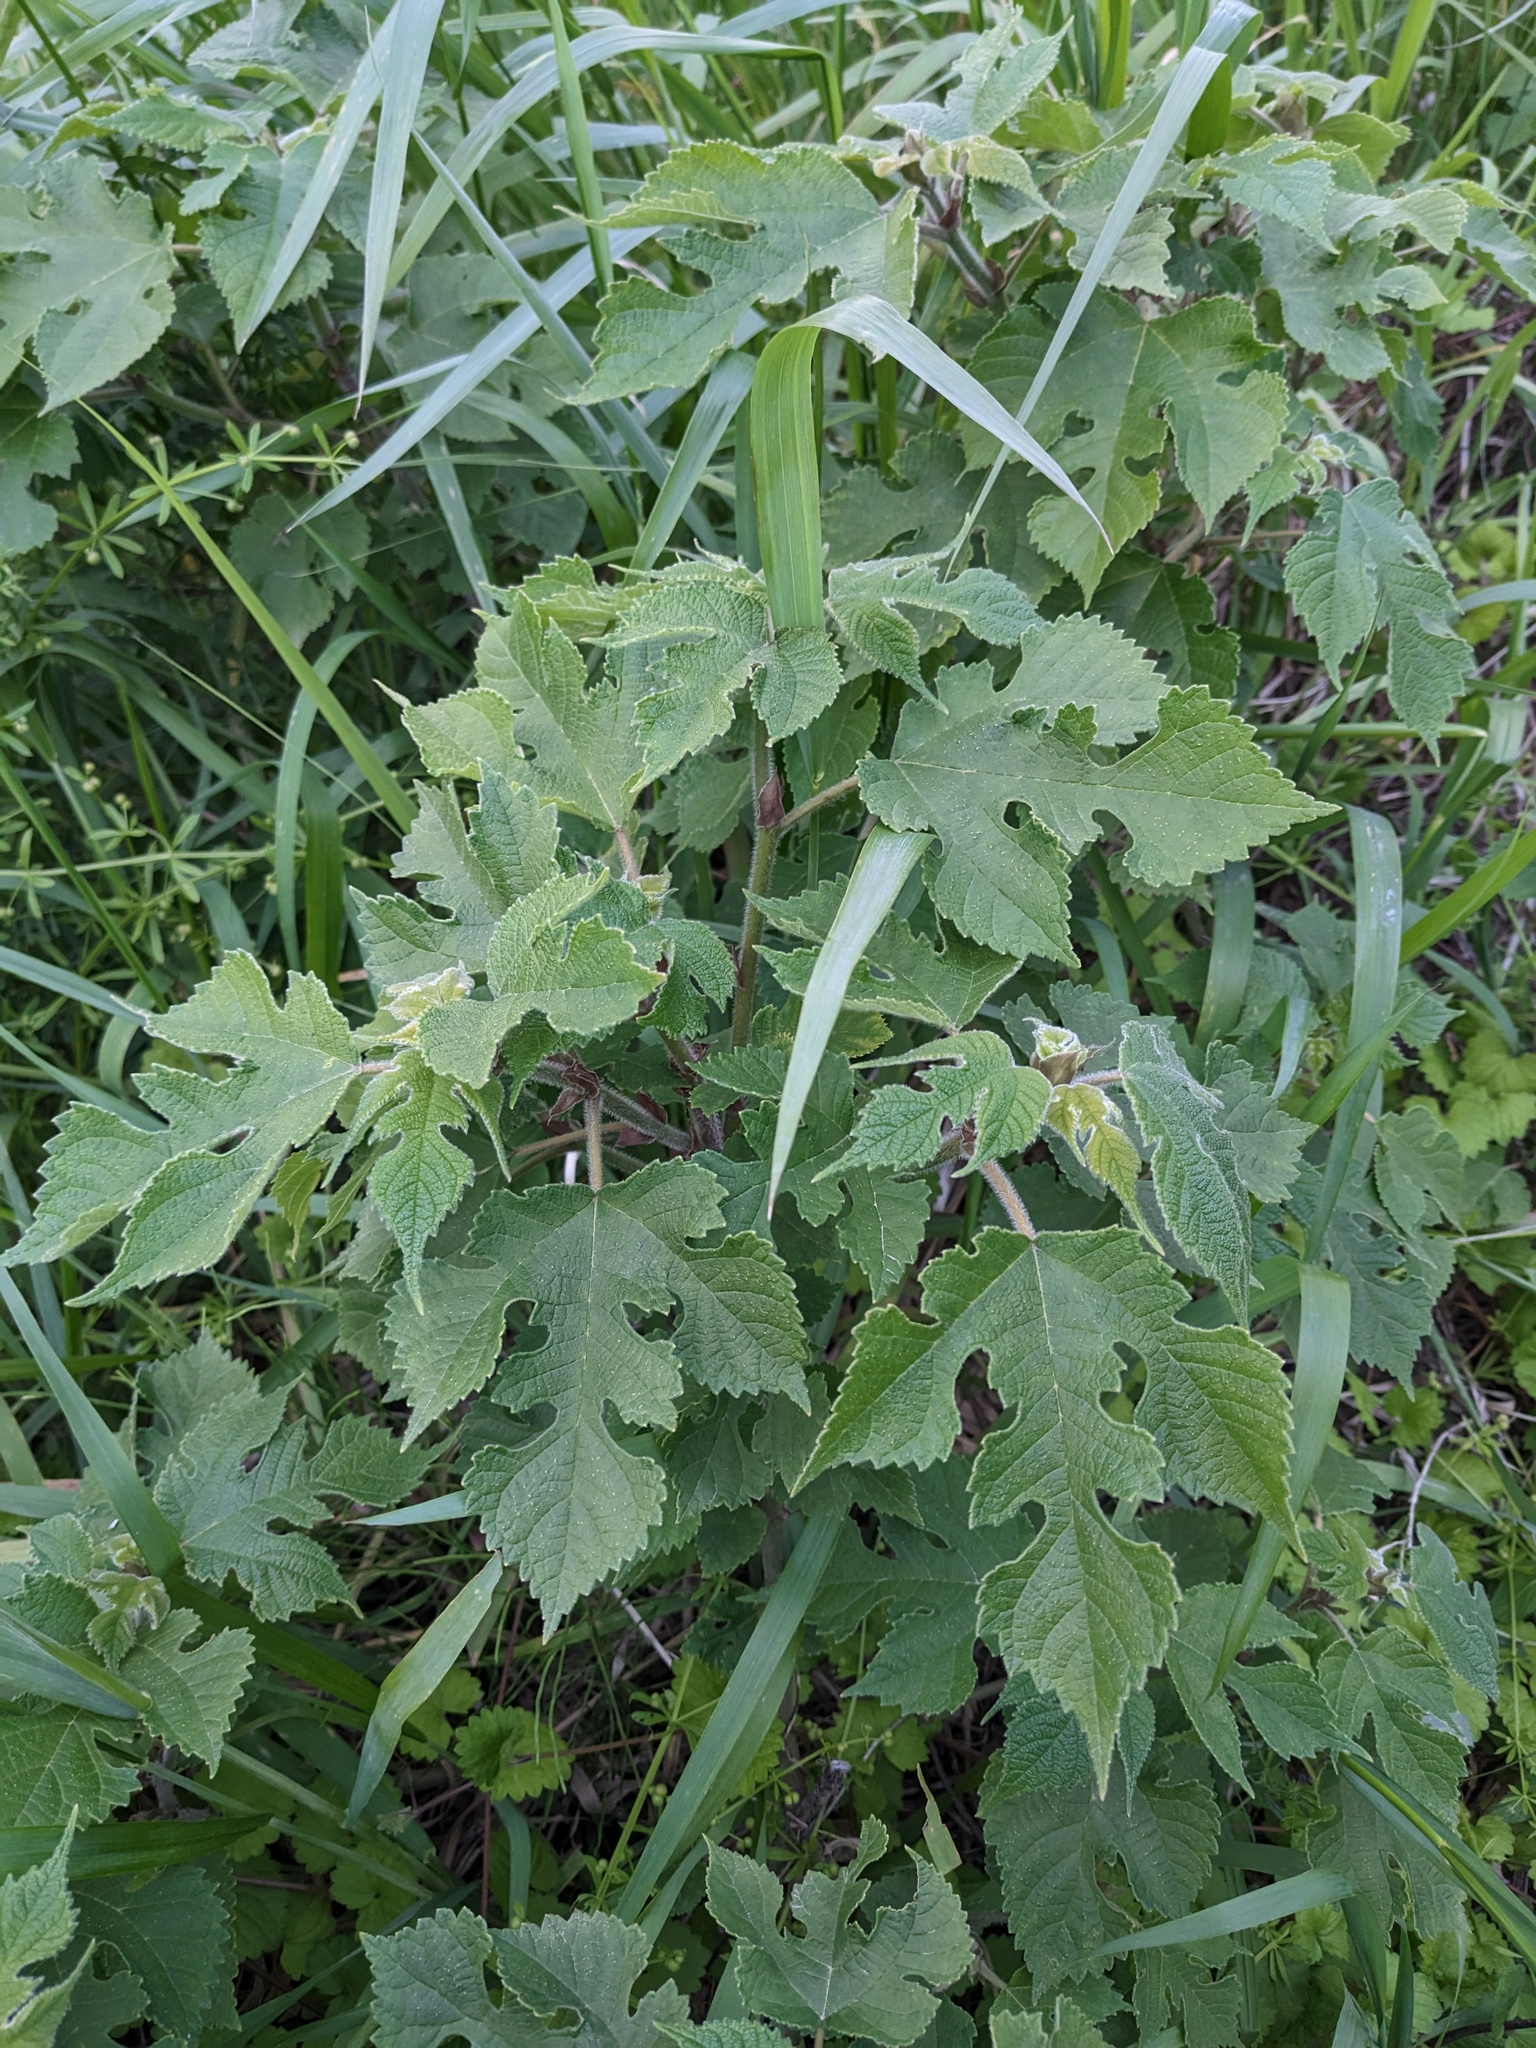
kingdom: Plantae
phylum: Tracheophyta
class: Magnoliopsida
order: Rosales
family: Moraceae
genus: Broussonetia
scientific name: Broussonetia papyrifera
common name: Paper mulberry
